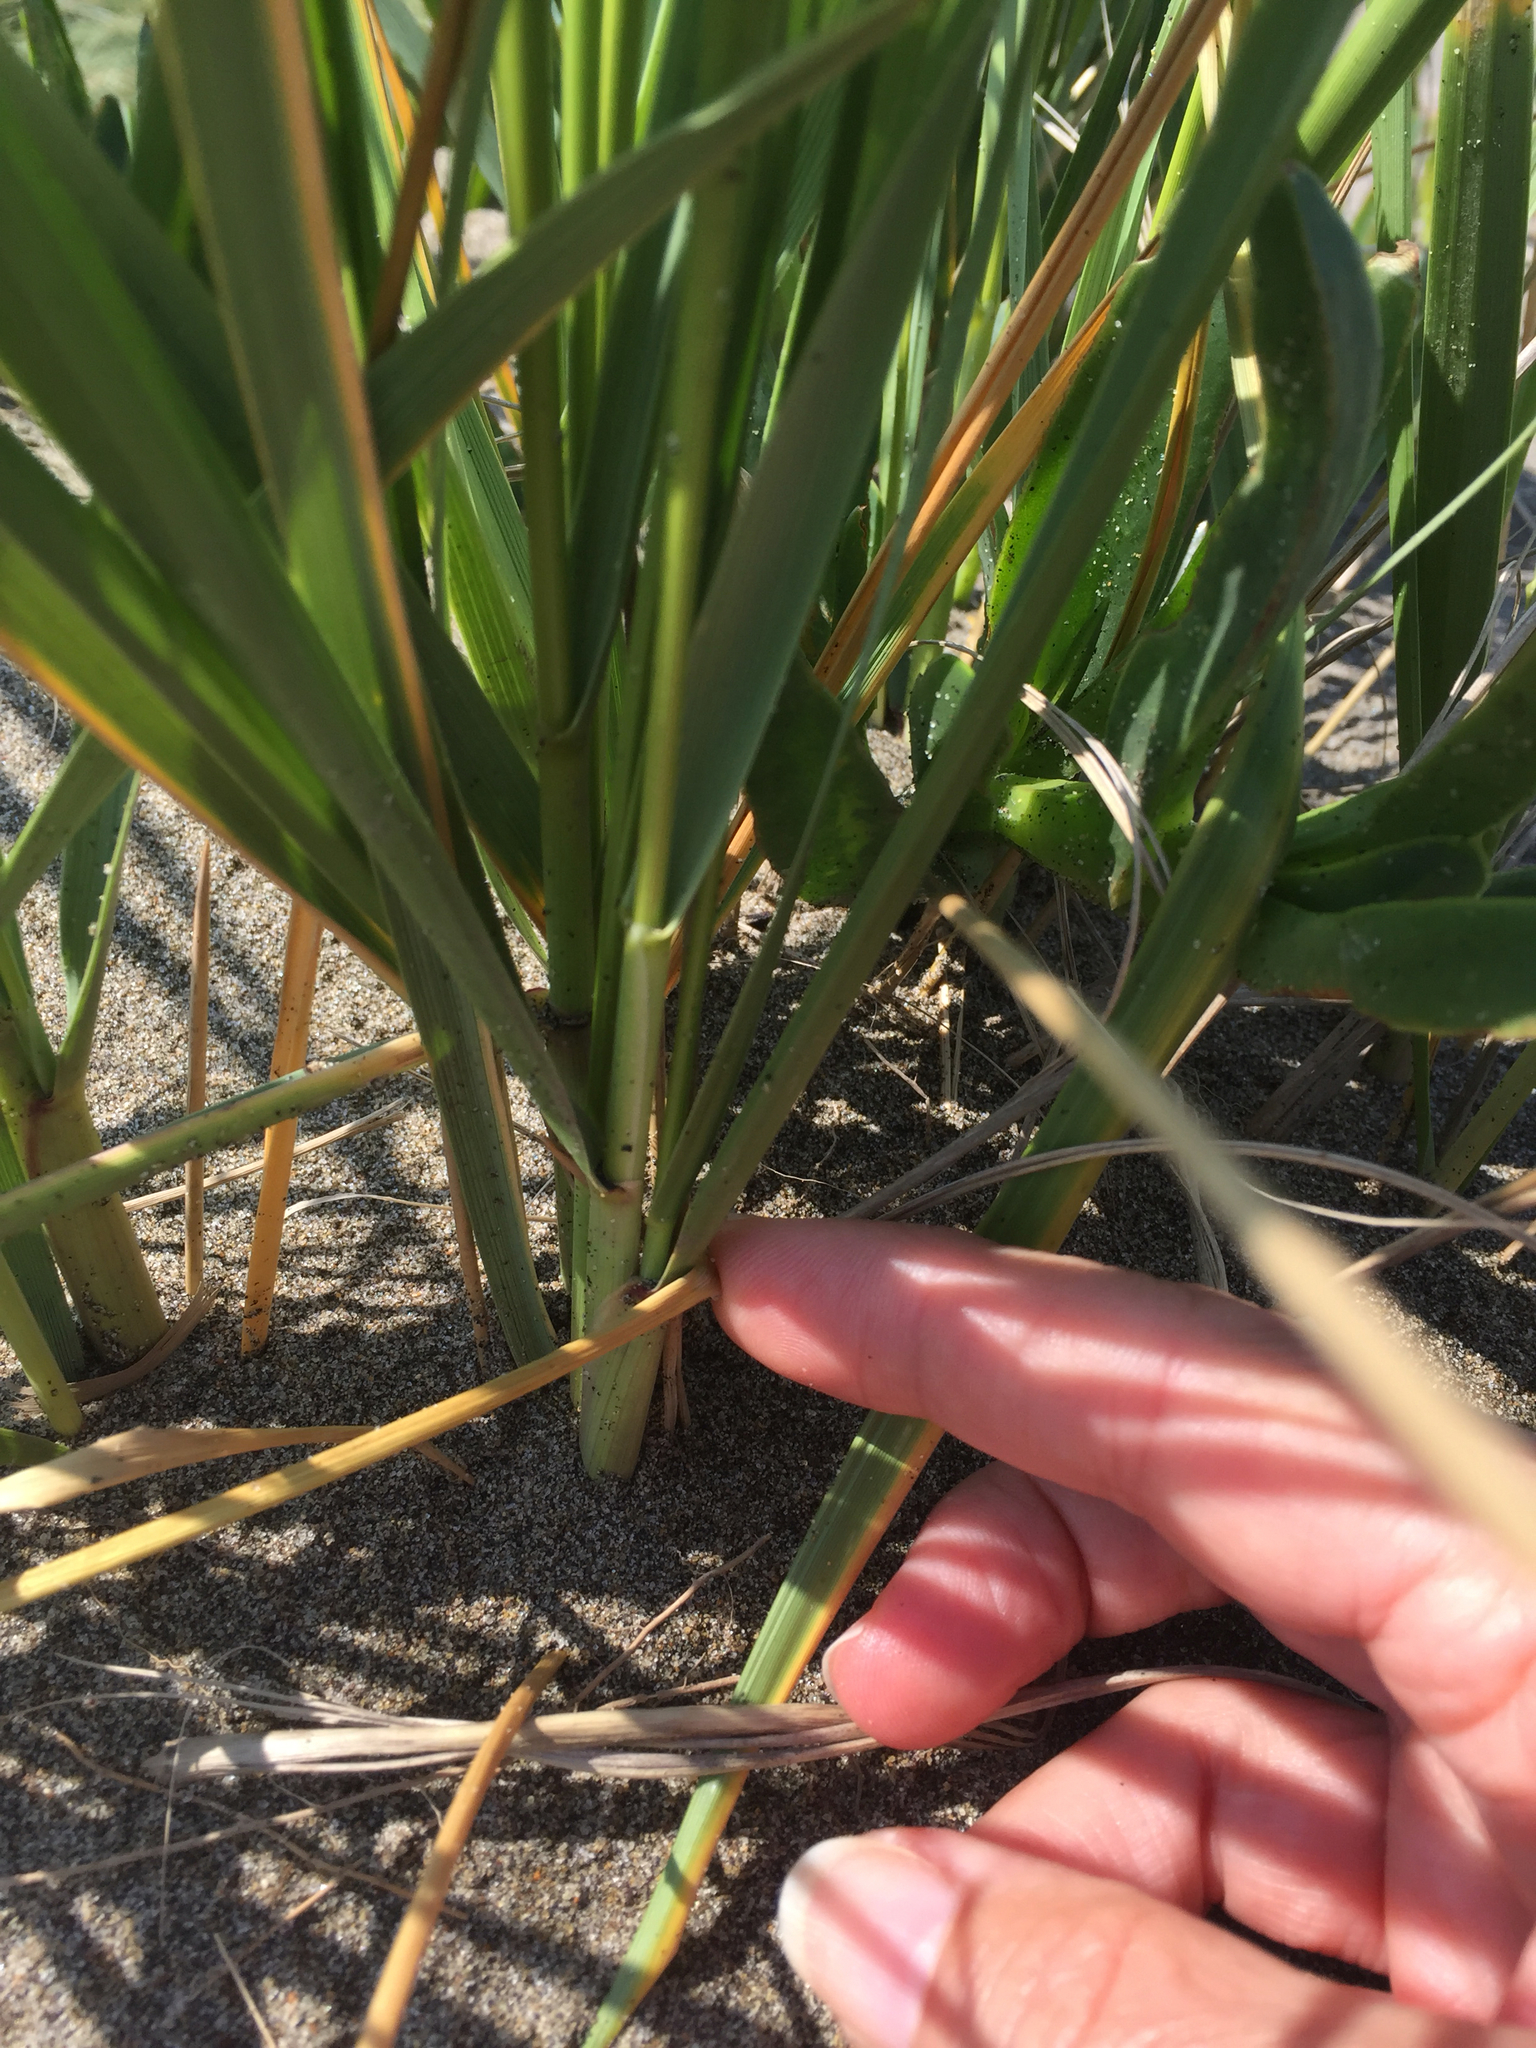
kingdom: Plantae
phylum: Tracheophyta
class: Liliopsida
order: Poales
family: Poaceae
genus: Leymus
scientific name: Leymus mollis
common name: American dune grass
